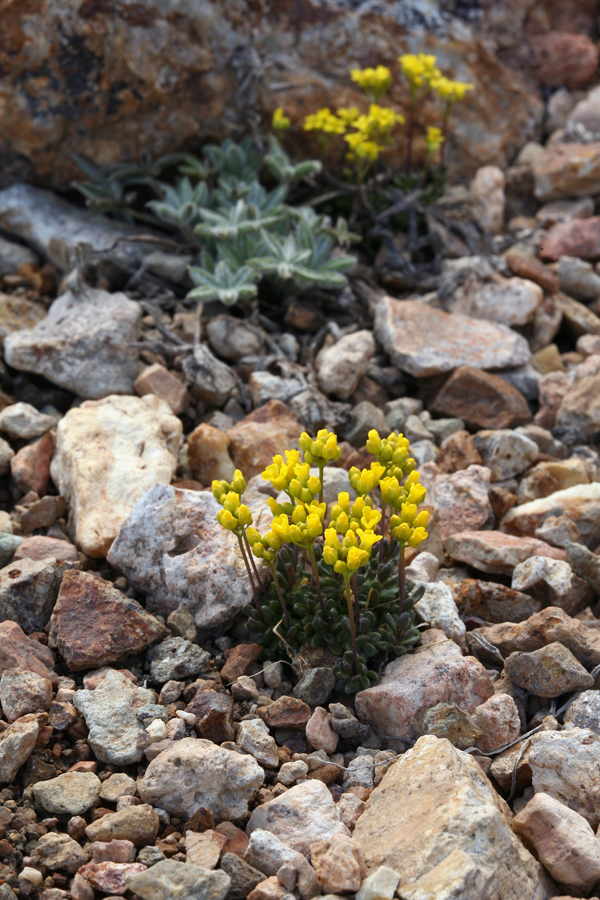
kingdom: Plantae
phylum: Tracheophyta
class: Magnoliopsida
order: Brassicales
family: Brassicaceae
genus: Draba
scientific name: Draba incrassata
